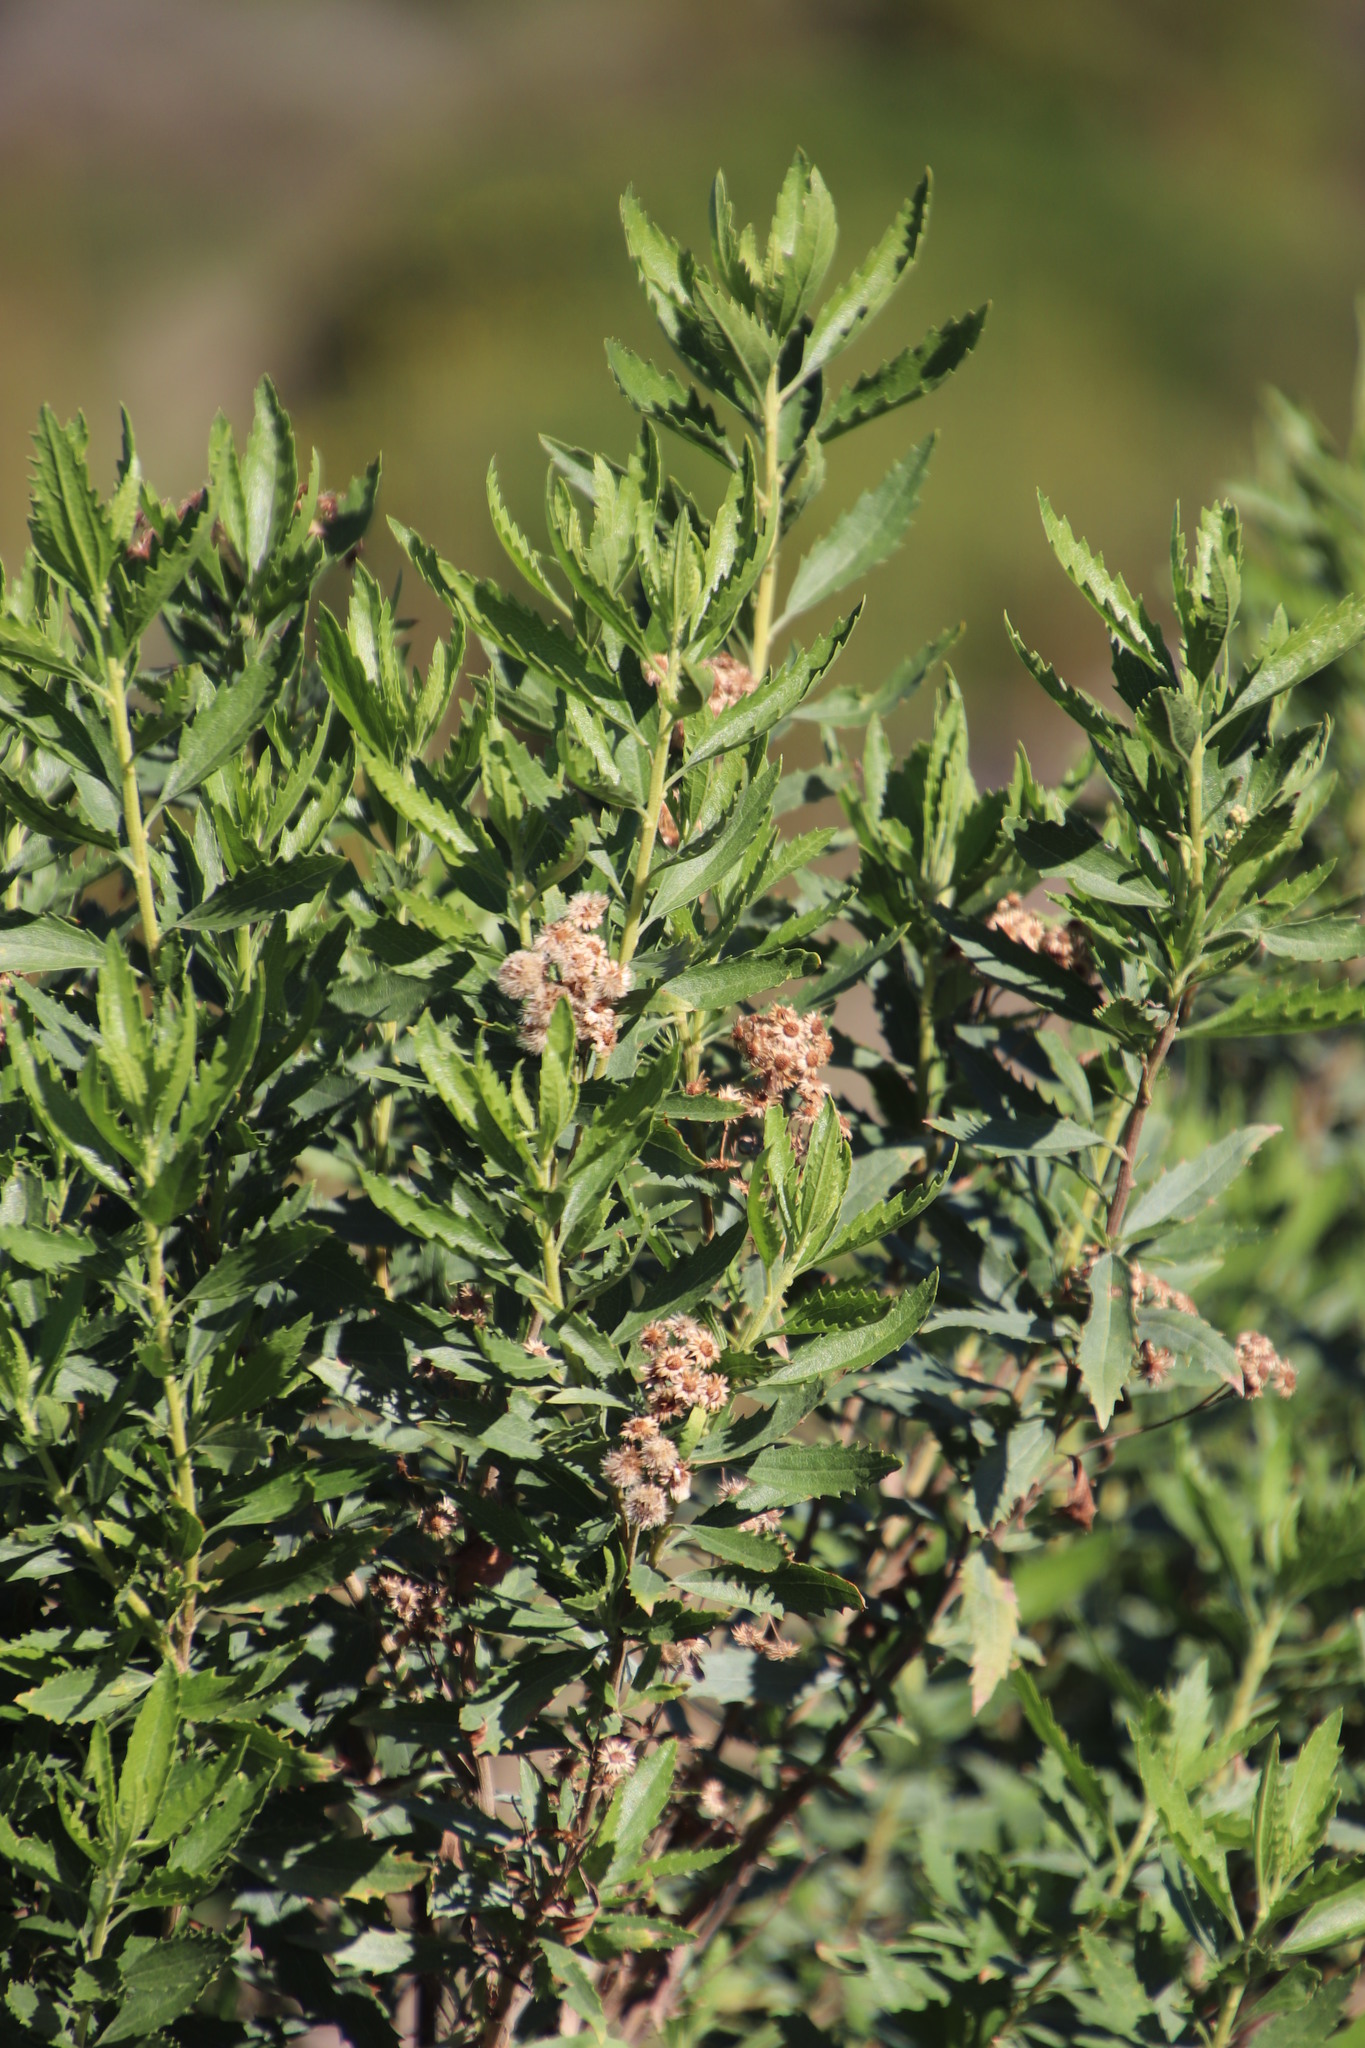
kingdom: Plantae
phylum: Tracheophyta
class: Magnoliopsida
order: Asterales
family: Asteraceae
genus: Nidorella
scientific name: Nidorella ivifolia
